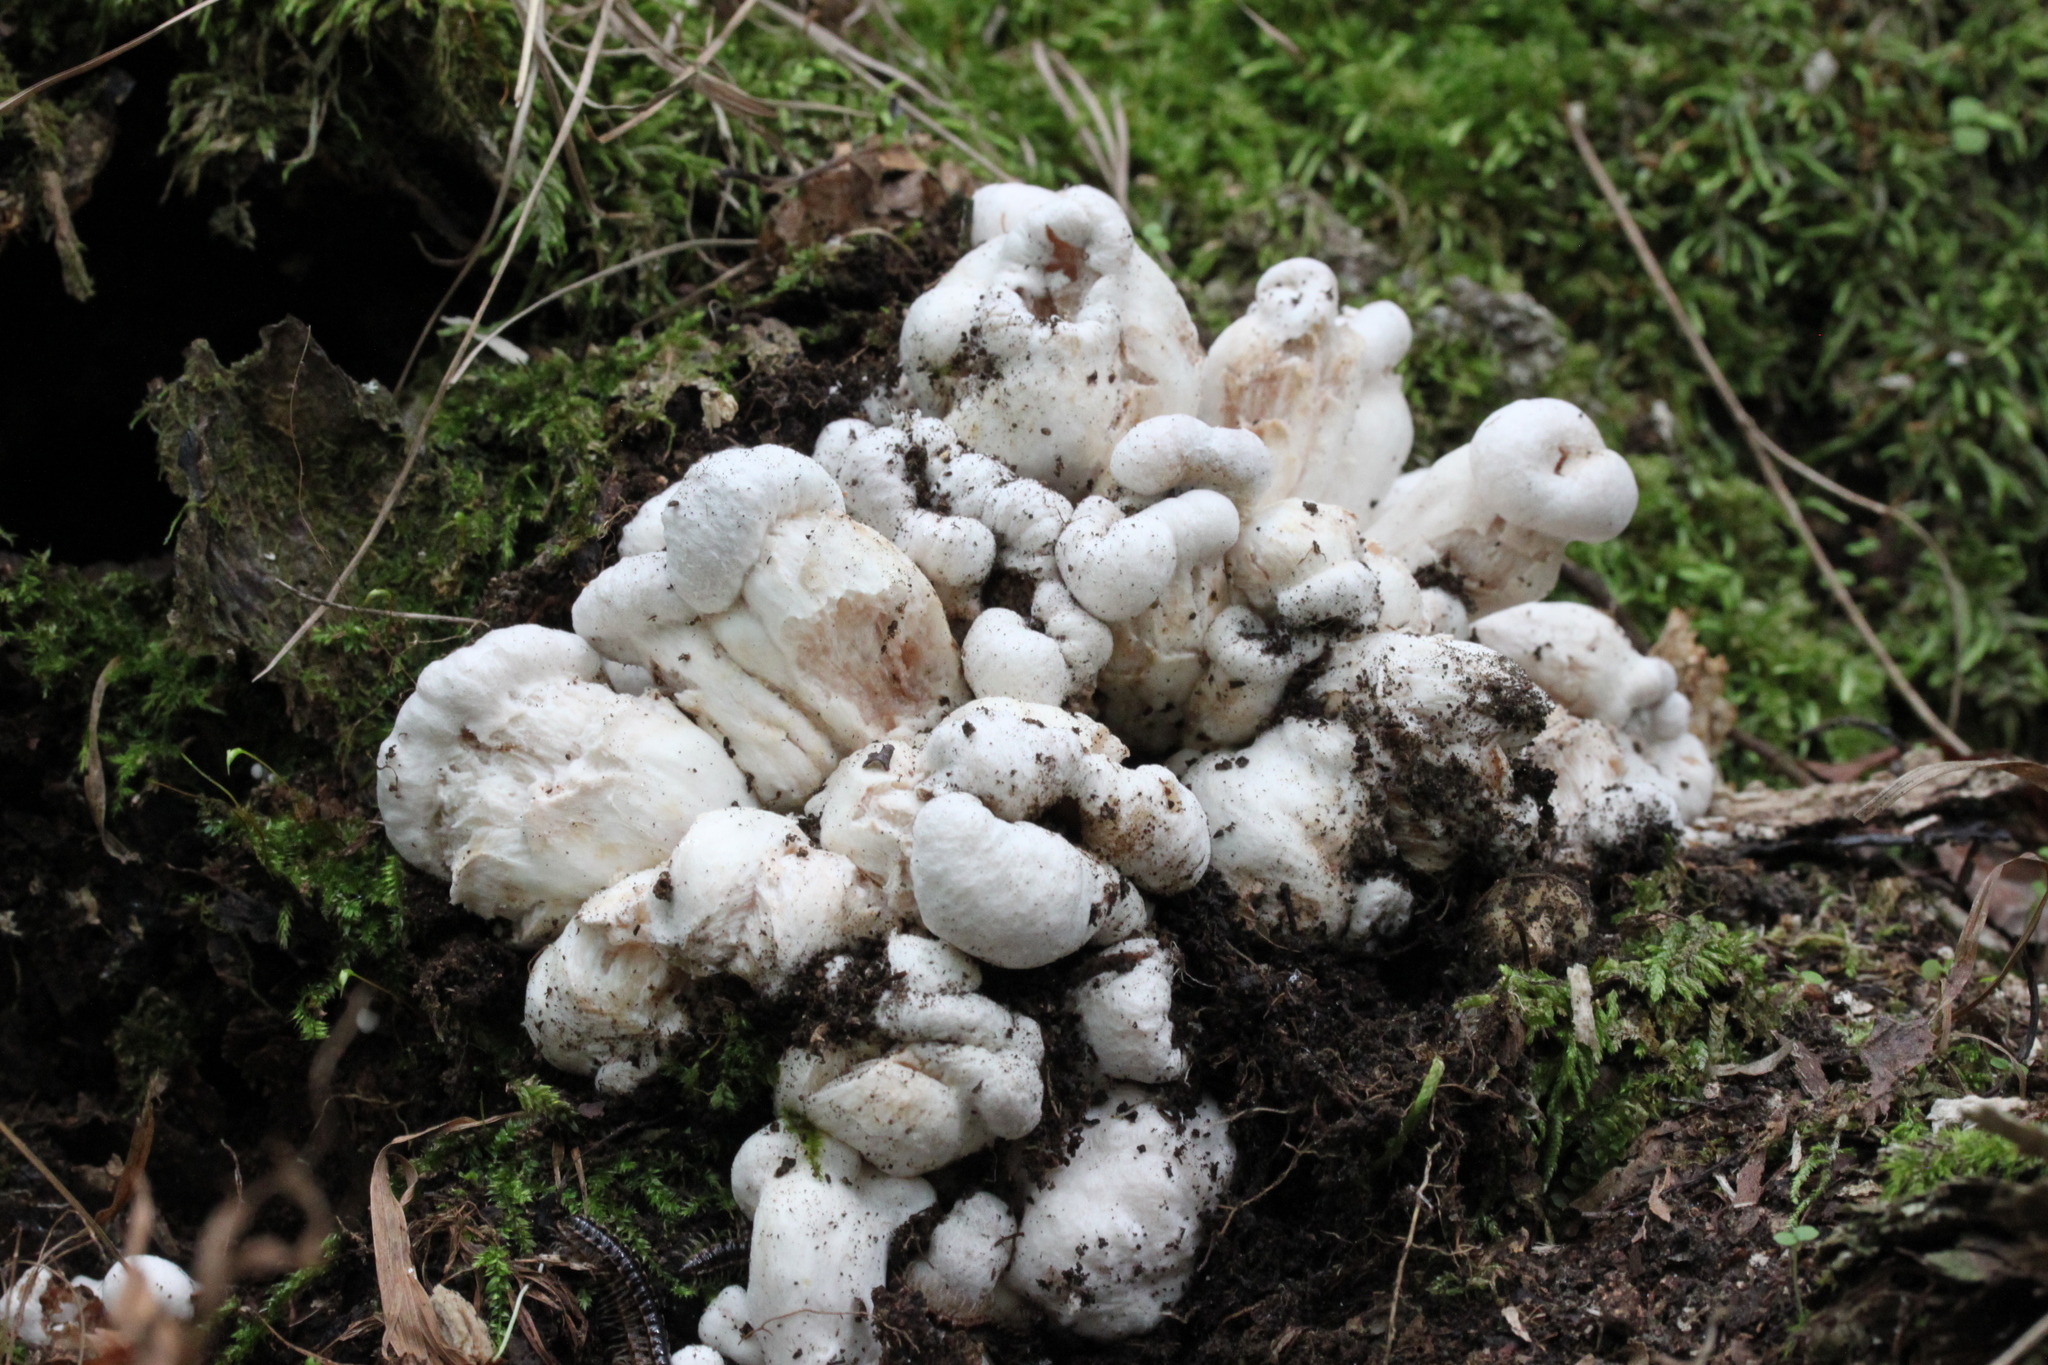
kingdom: Fungi
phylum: Basidiomycota
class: Agaricomycetes
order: Agaricales
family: Entolomataceae
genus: Entoloma
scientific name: Entoloma abortivum
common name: Aborted entoloma
